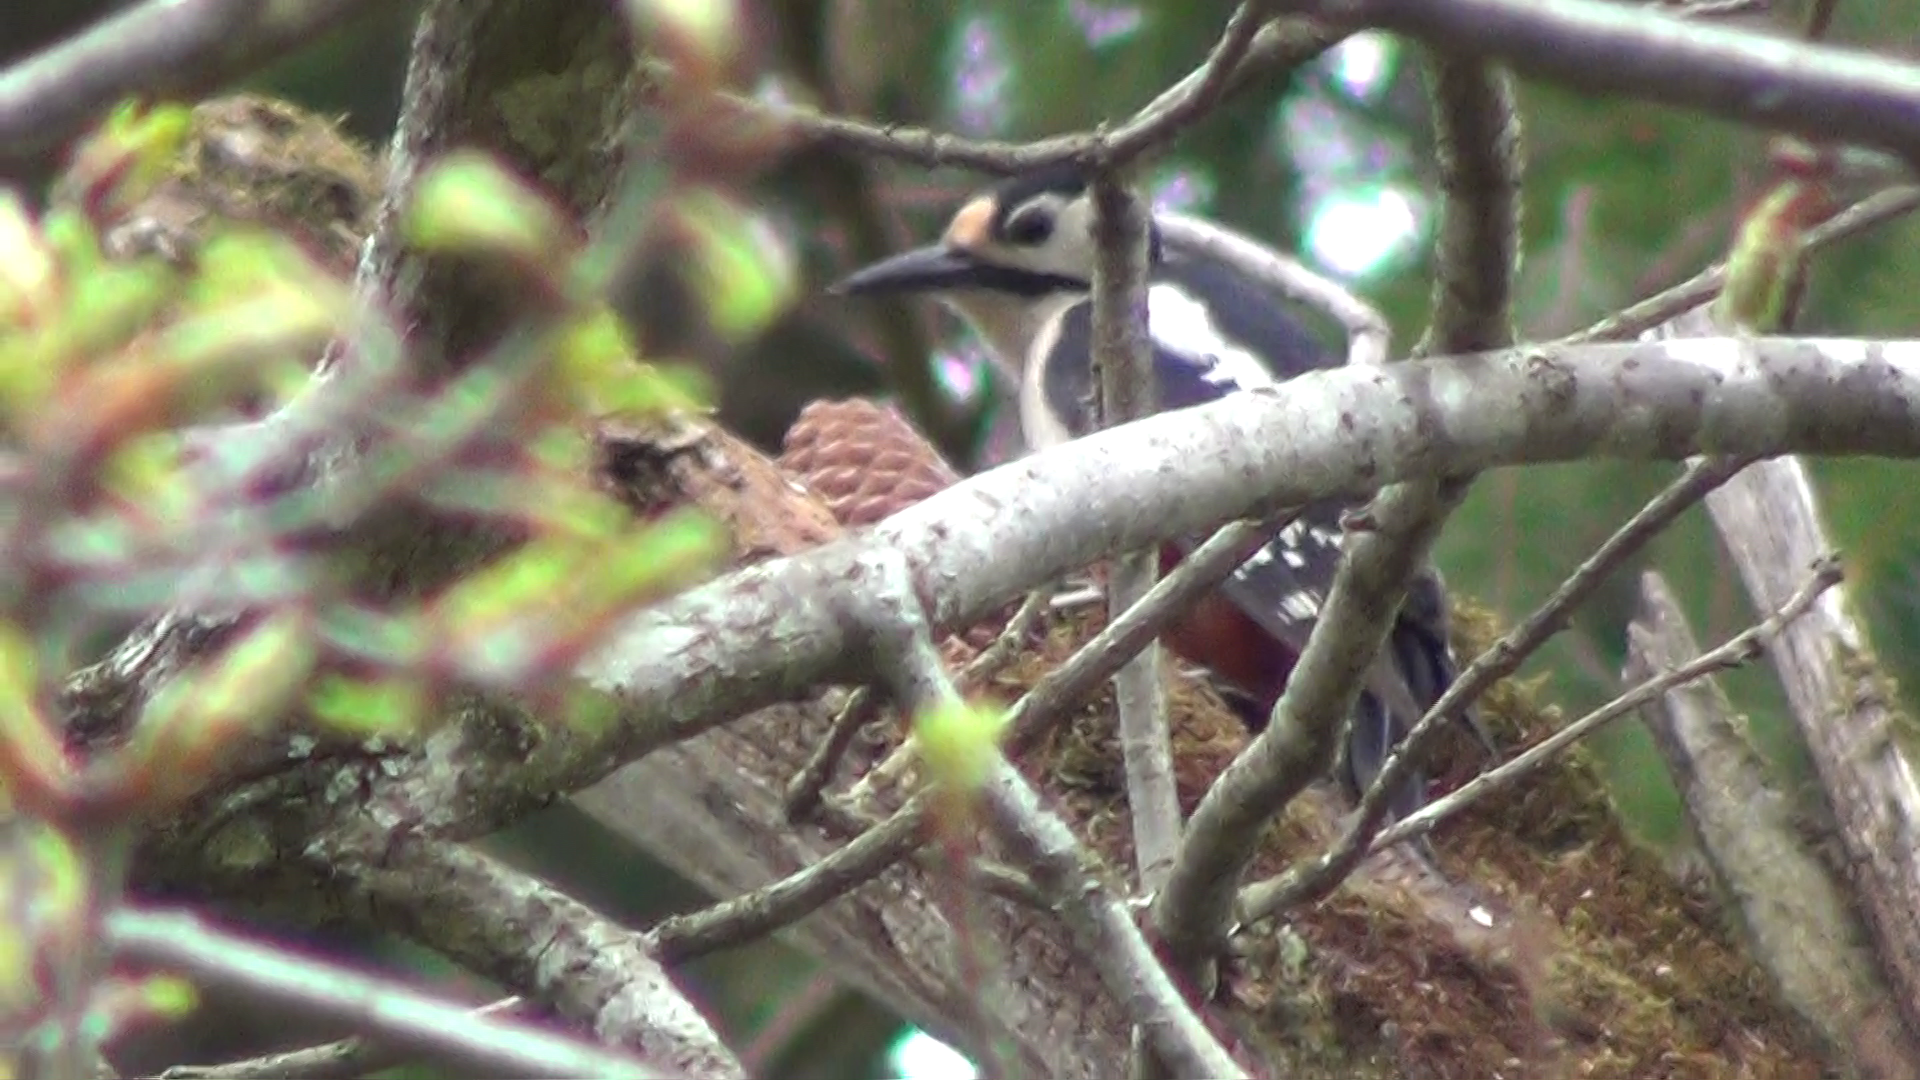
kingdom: Animalia
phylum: Chordata
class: Aves
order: Piciformes
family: Picidae
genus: Dendrocopos
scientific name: Dendrocopos major
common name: Great spotted woodpecker
